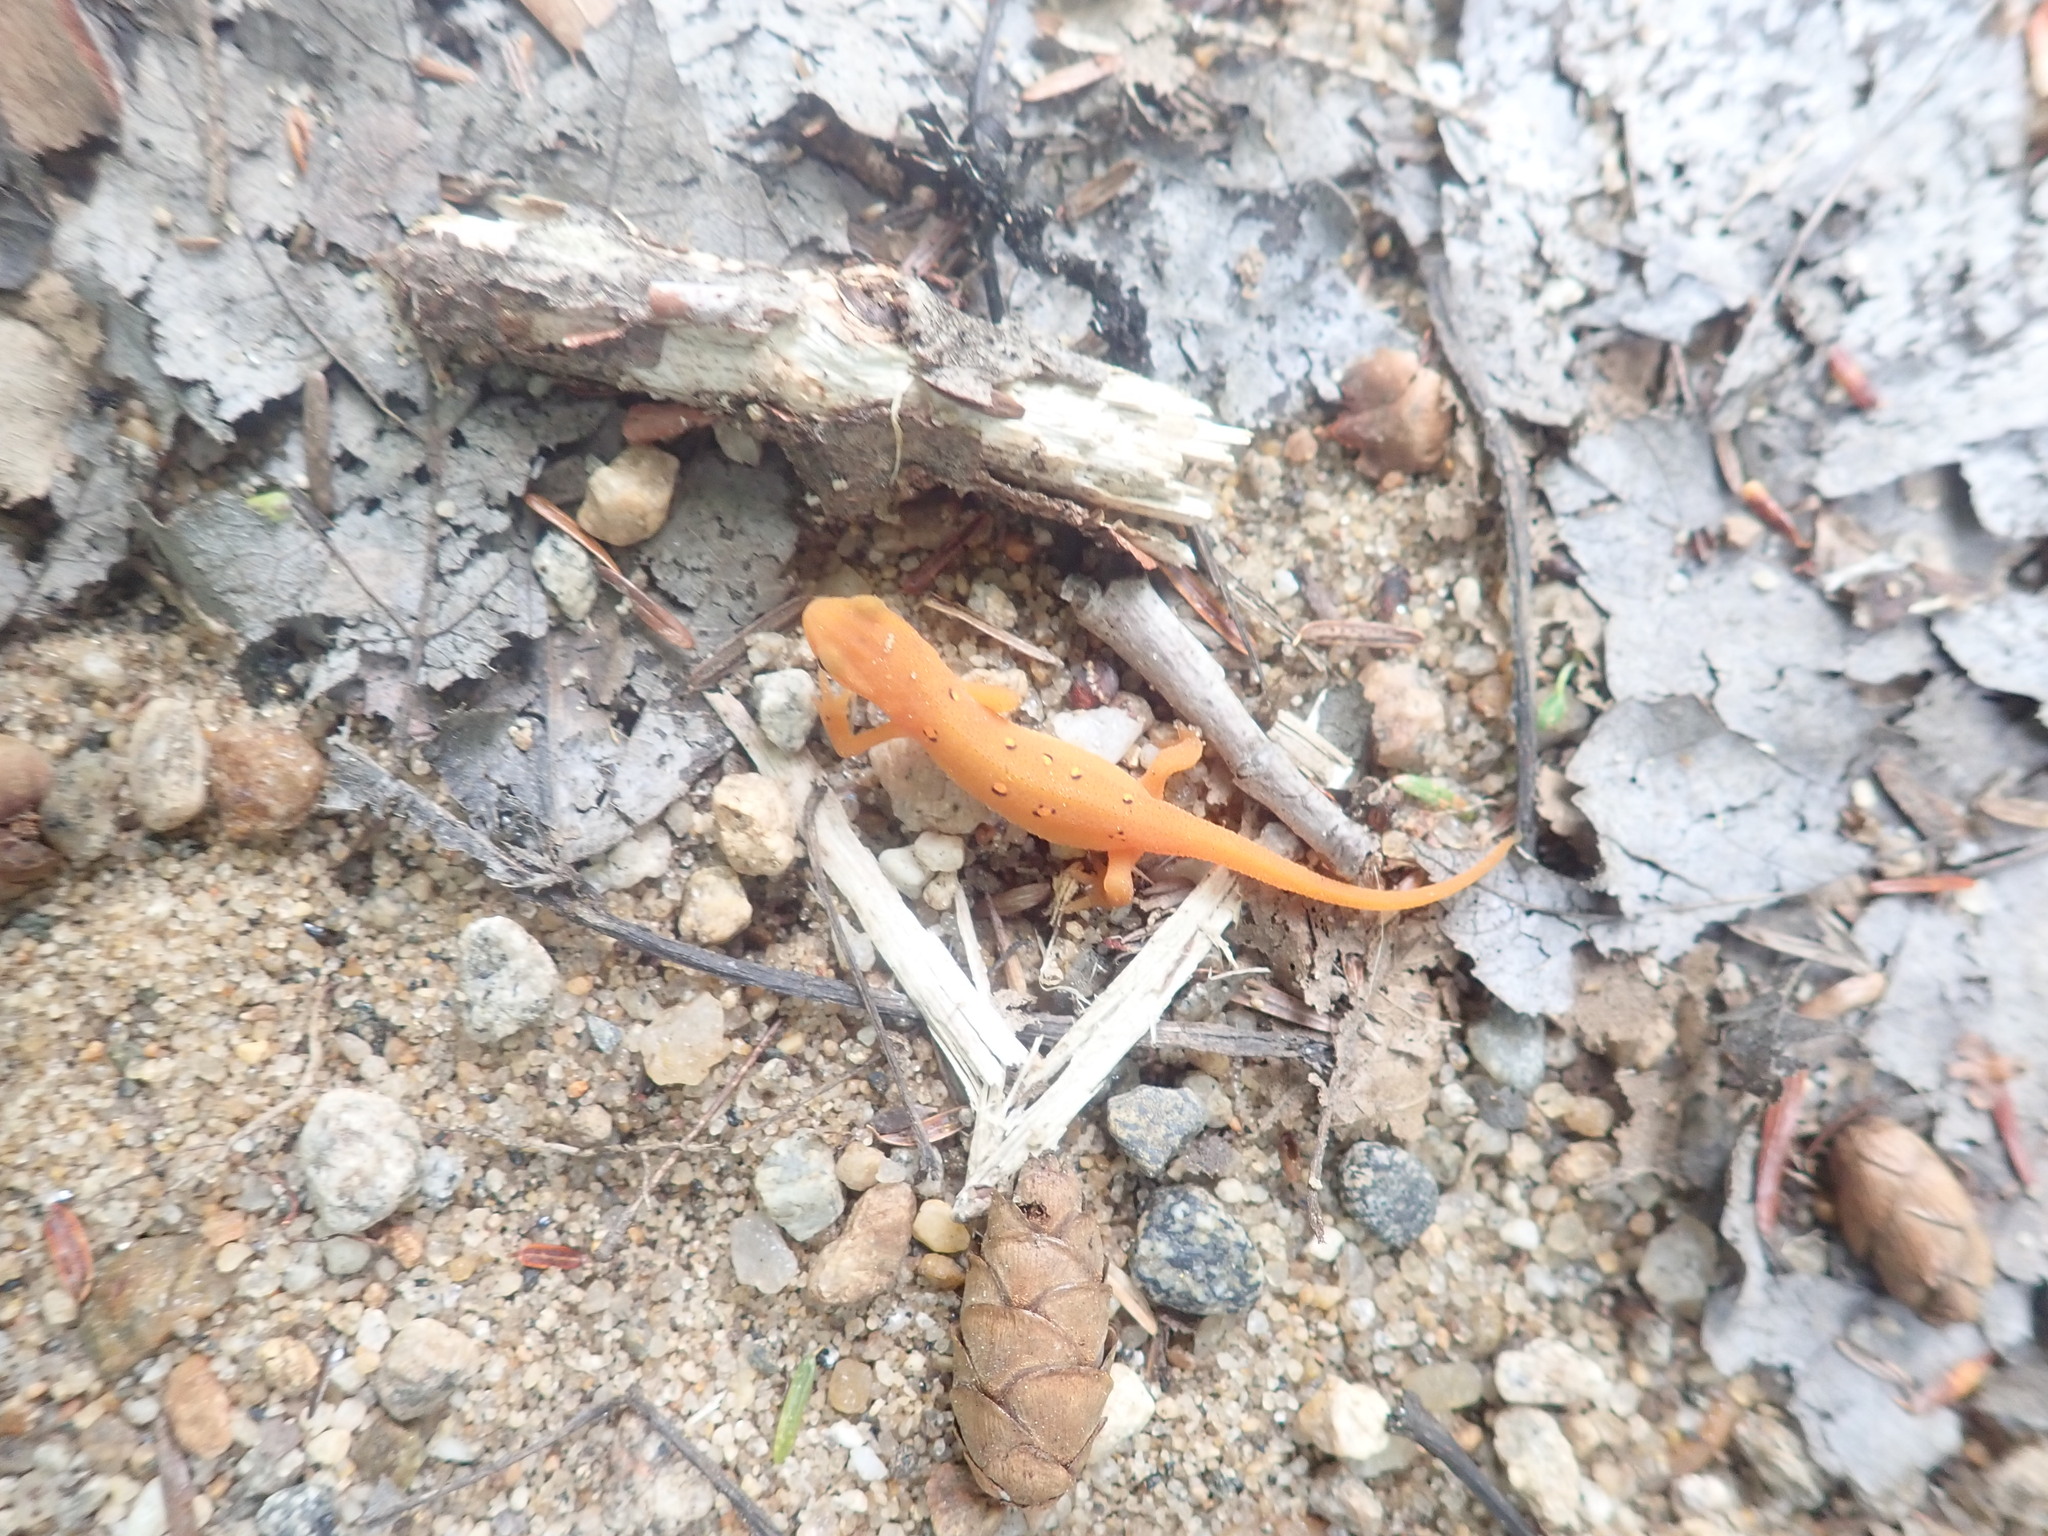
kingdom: Animalia
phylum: Chordata
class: Amphibia
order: Caudata
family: Salamandridae
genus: Notophthalmus
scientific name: Notophthalmus viridescens
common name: Eastern newt
